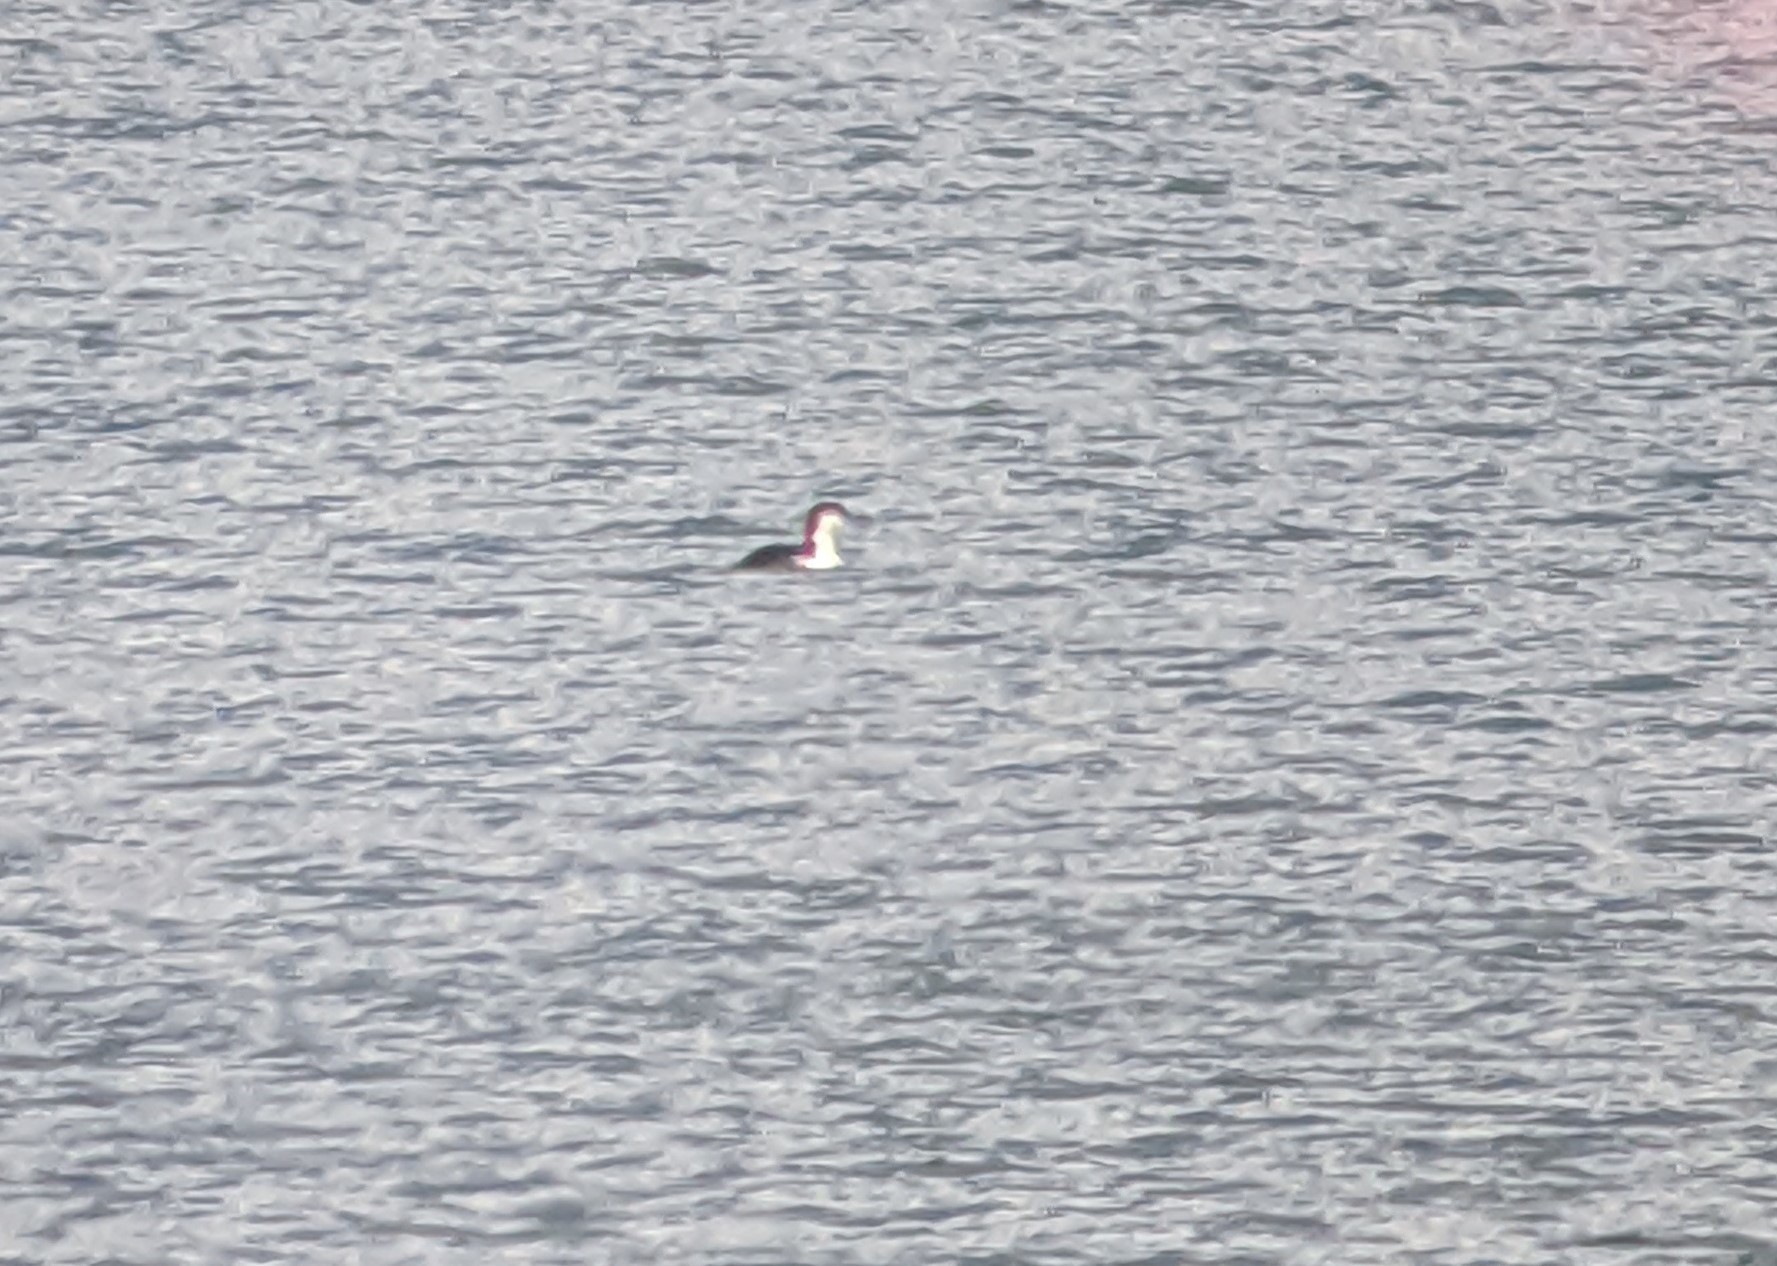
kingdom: Animalia
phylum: Chordata
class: Aves
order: Gaviiformes
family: Gaviidae
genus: Gavia
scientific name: Gavia immer
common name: Common loon
